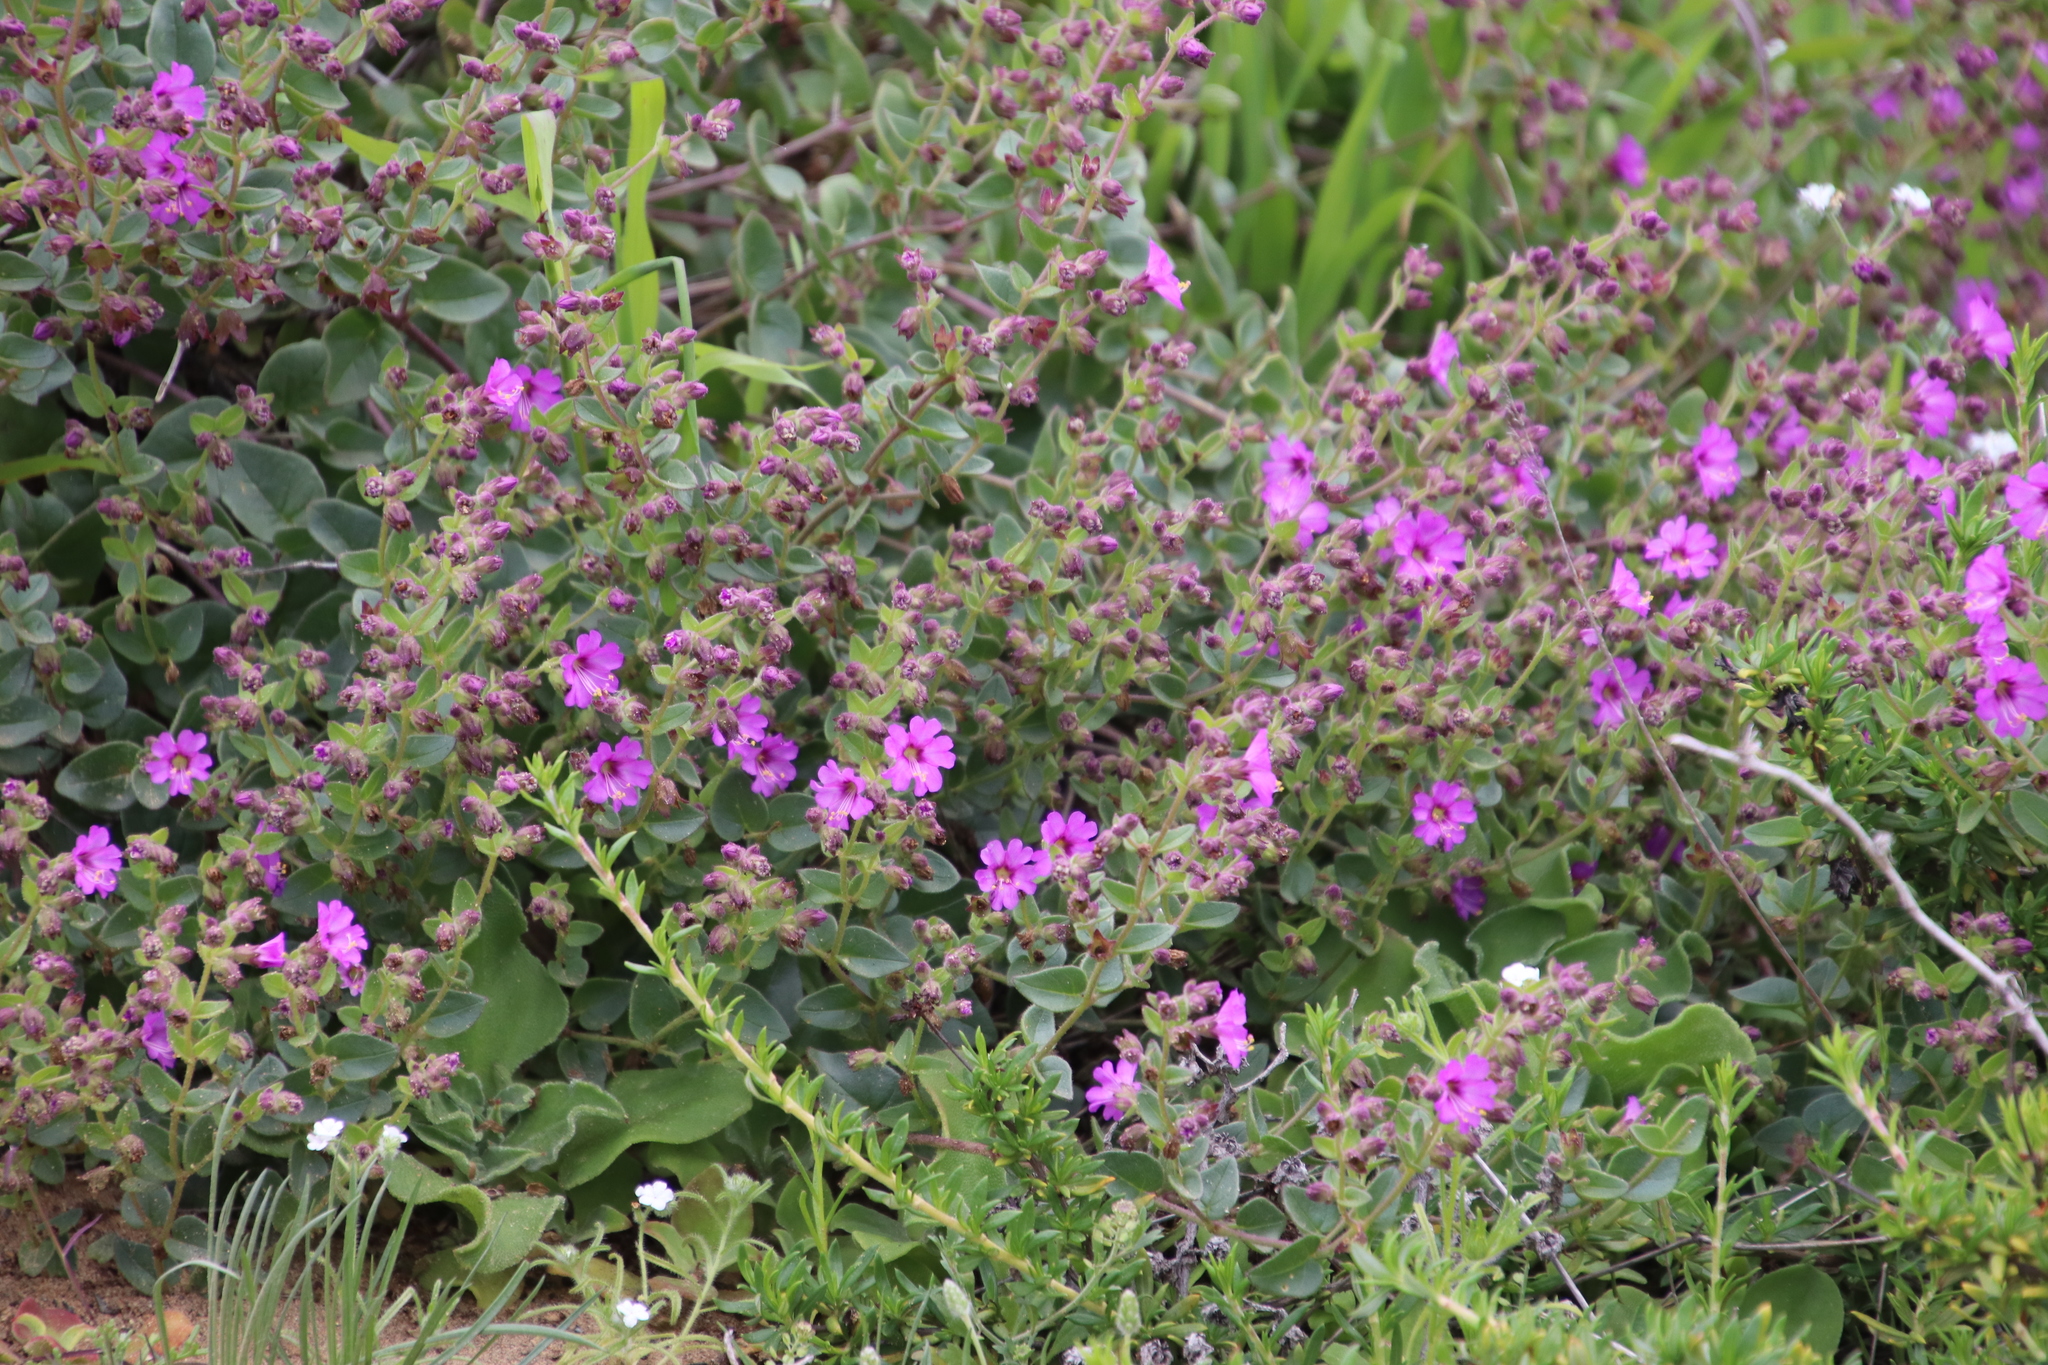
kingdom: Plantae
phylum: Tracheophyta
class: Magnoliopsida
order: Caryophyllales
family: Nyctaginaceae
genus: Mirabilis
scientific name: Mirabilis laevis
